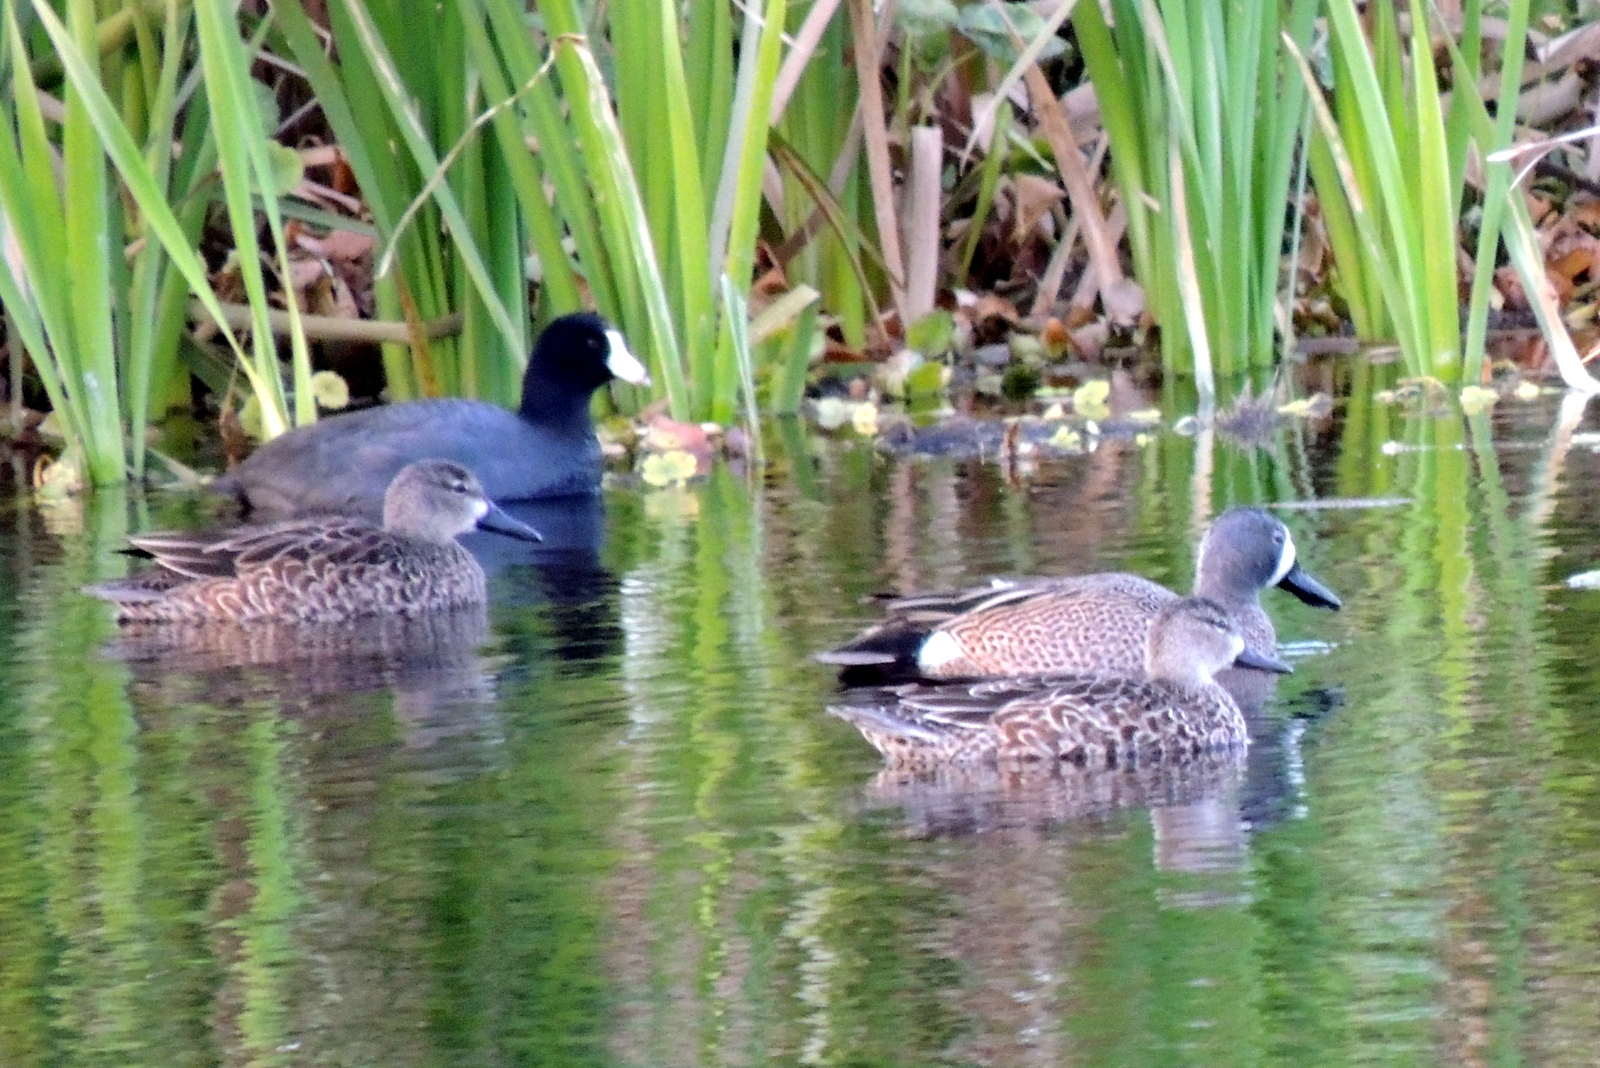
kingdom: Animalia
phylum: Chordata
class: Aves
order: Anseriformes
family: Anatidae
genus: Spatula
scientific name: Spatula discors
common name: Blue-winged teal
